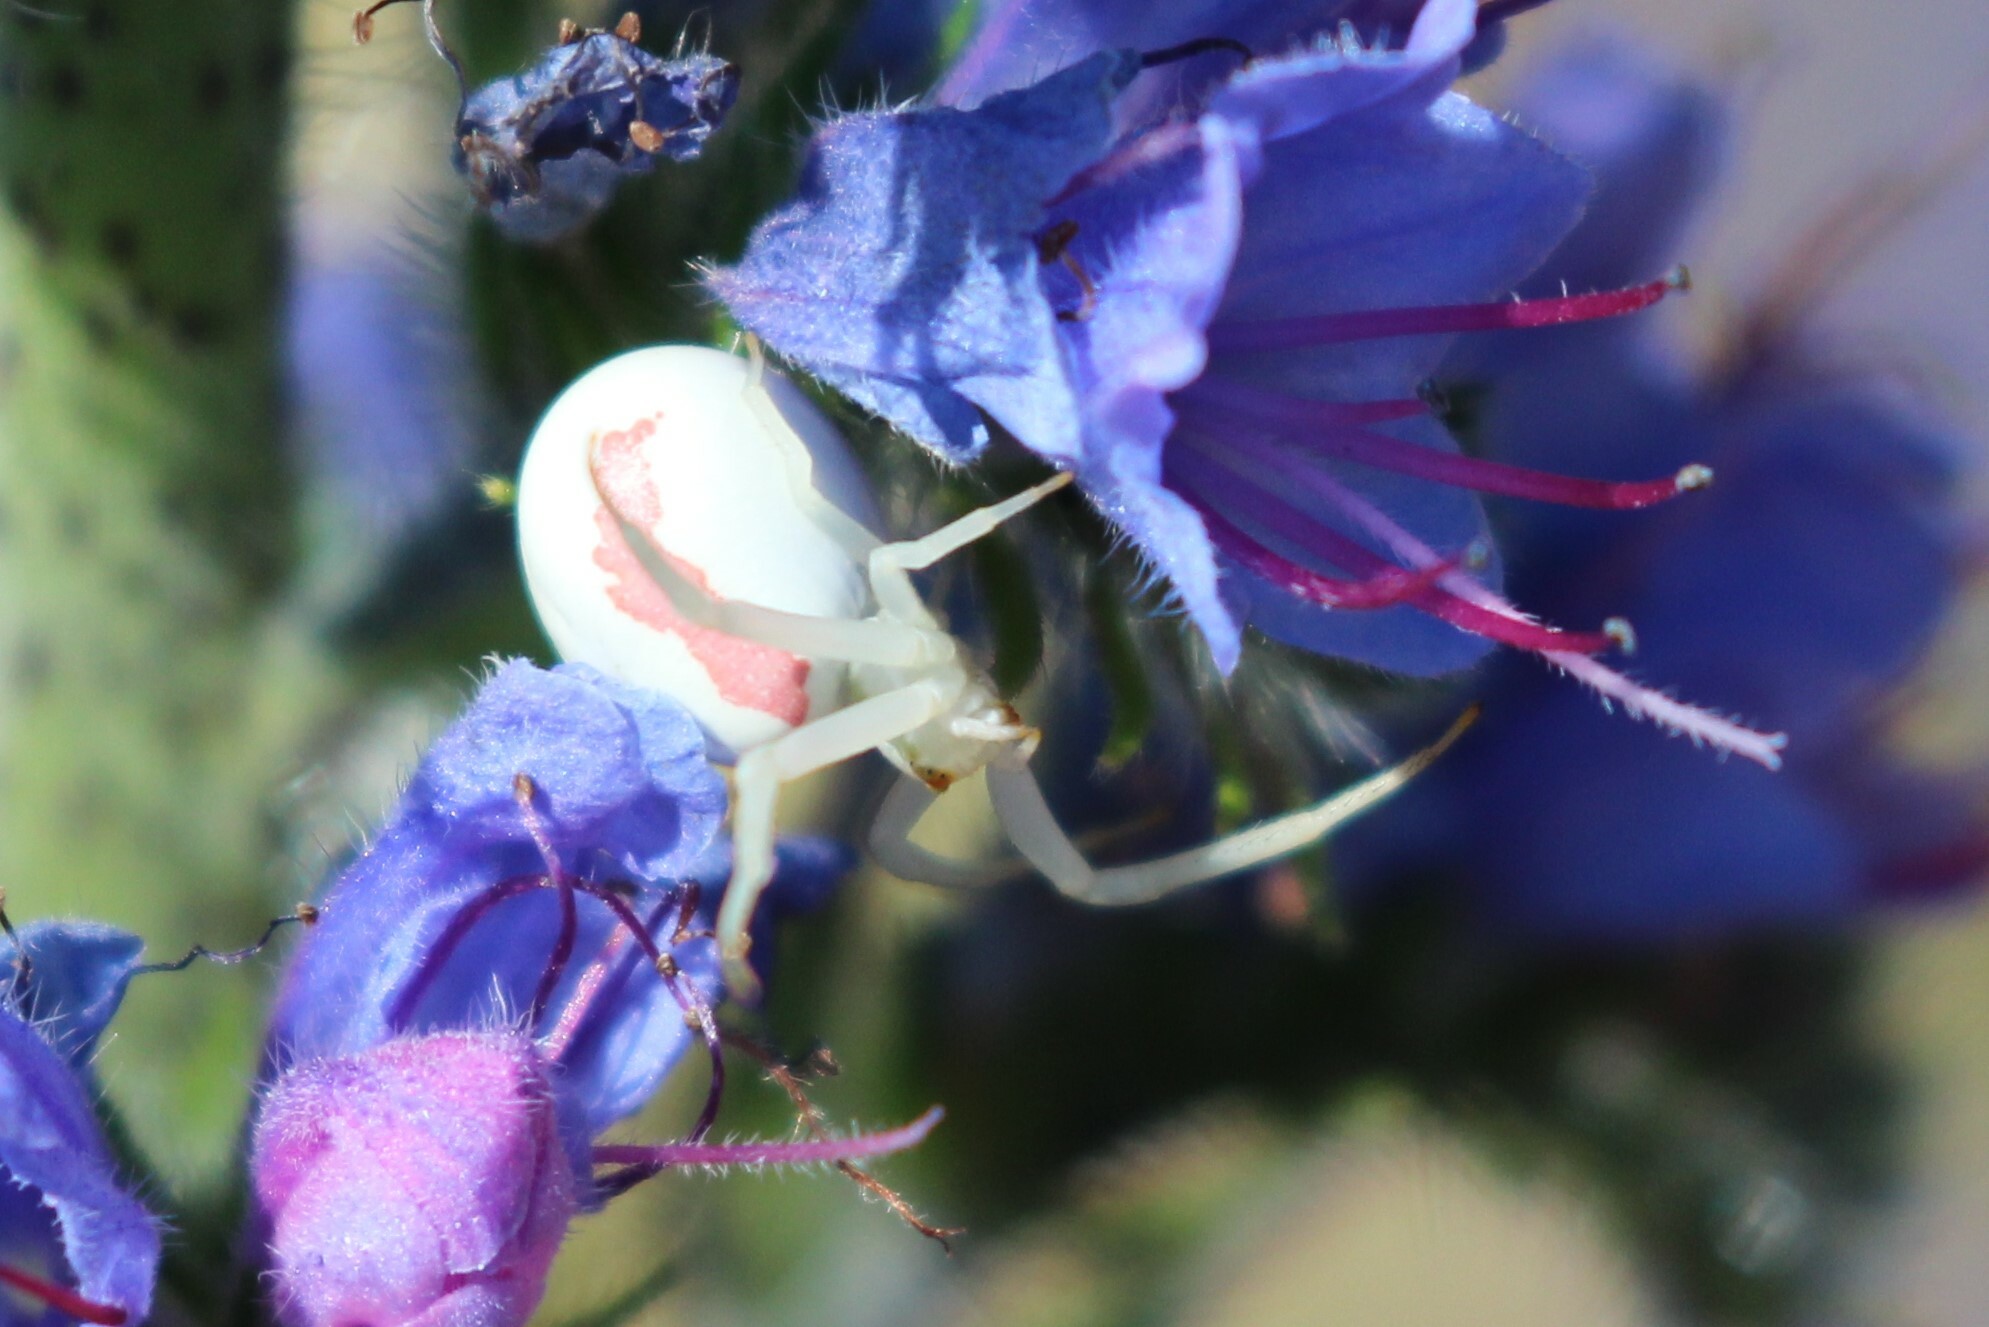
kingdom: Animalia
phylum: Arthropoda
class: Arachnida
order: Araneae
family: Thomisidae
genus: Misumena
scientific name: Misumena vatia
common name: Goldenrod crab spider
